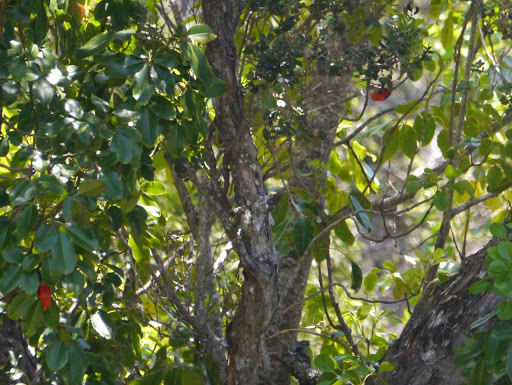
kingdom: Animalia
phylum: Chordata
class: Aves
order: Passeriformes
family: Fringillidae
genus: Vestiaria
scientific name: Vestiaria coccinea
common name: Iiwi
